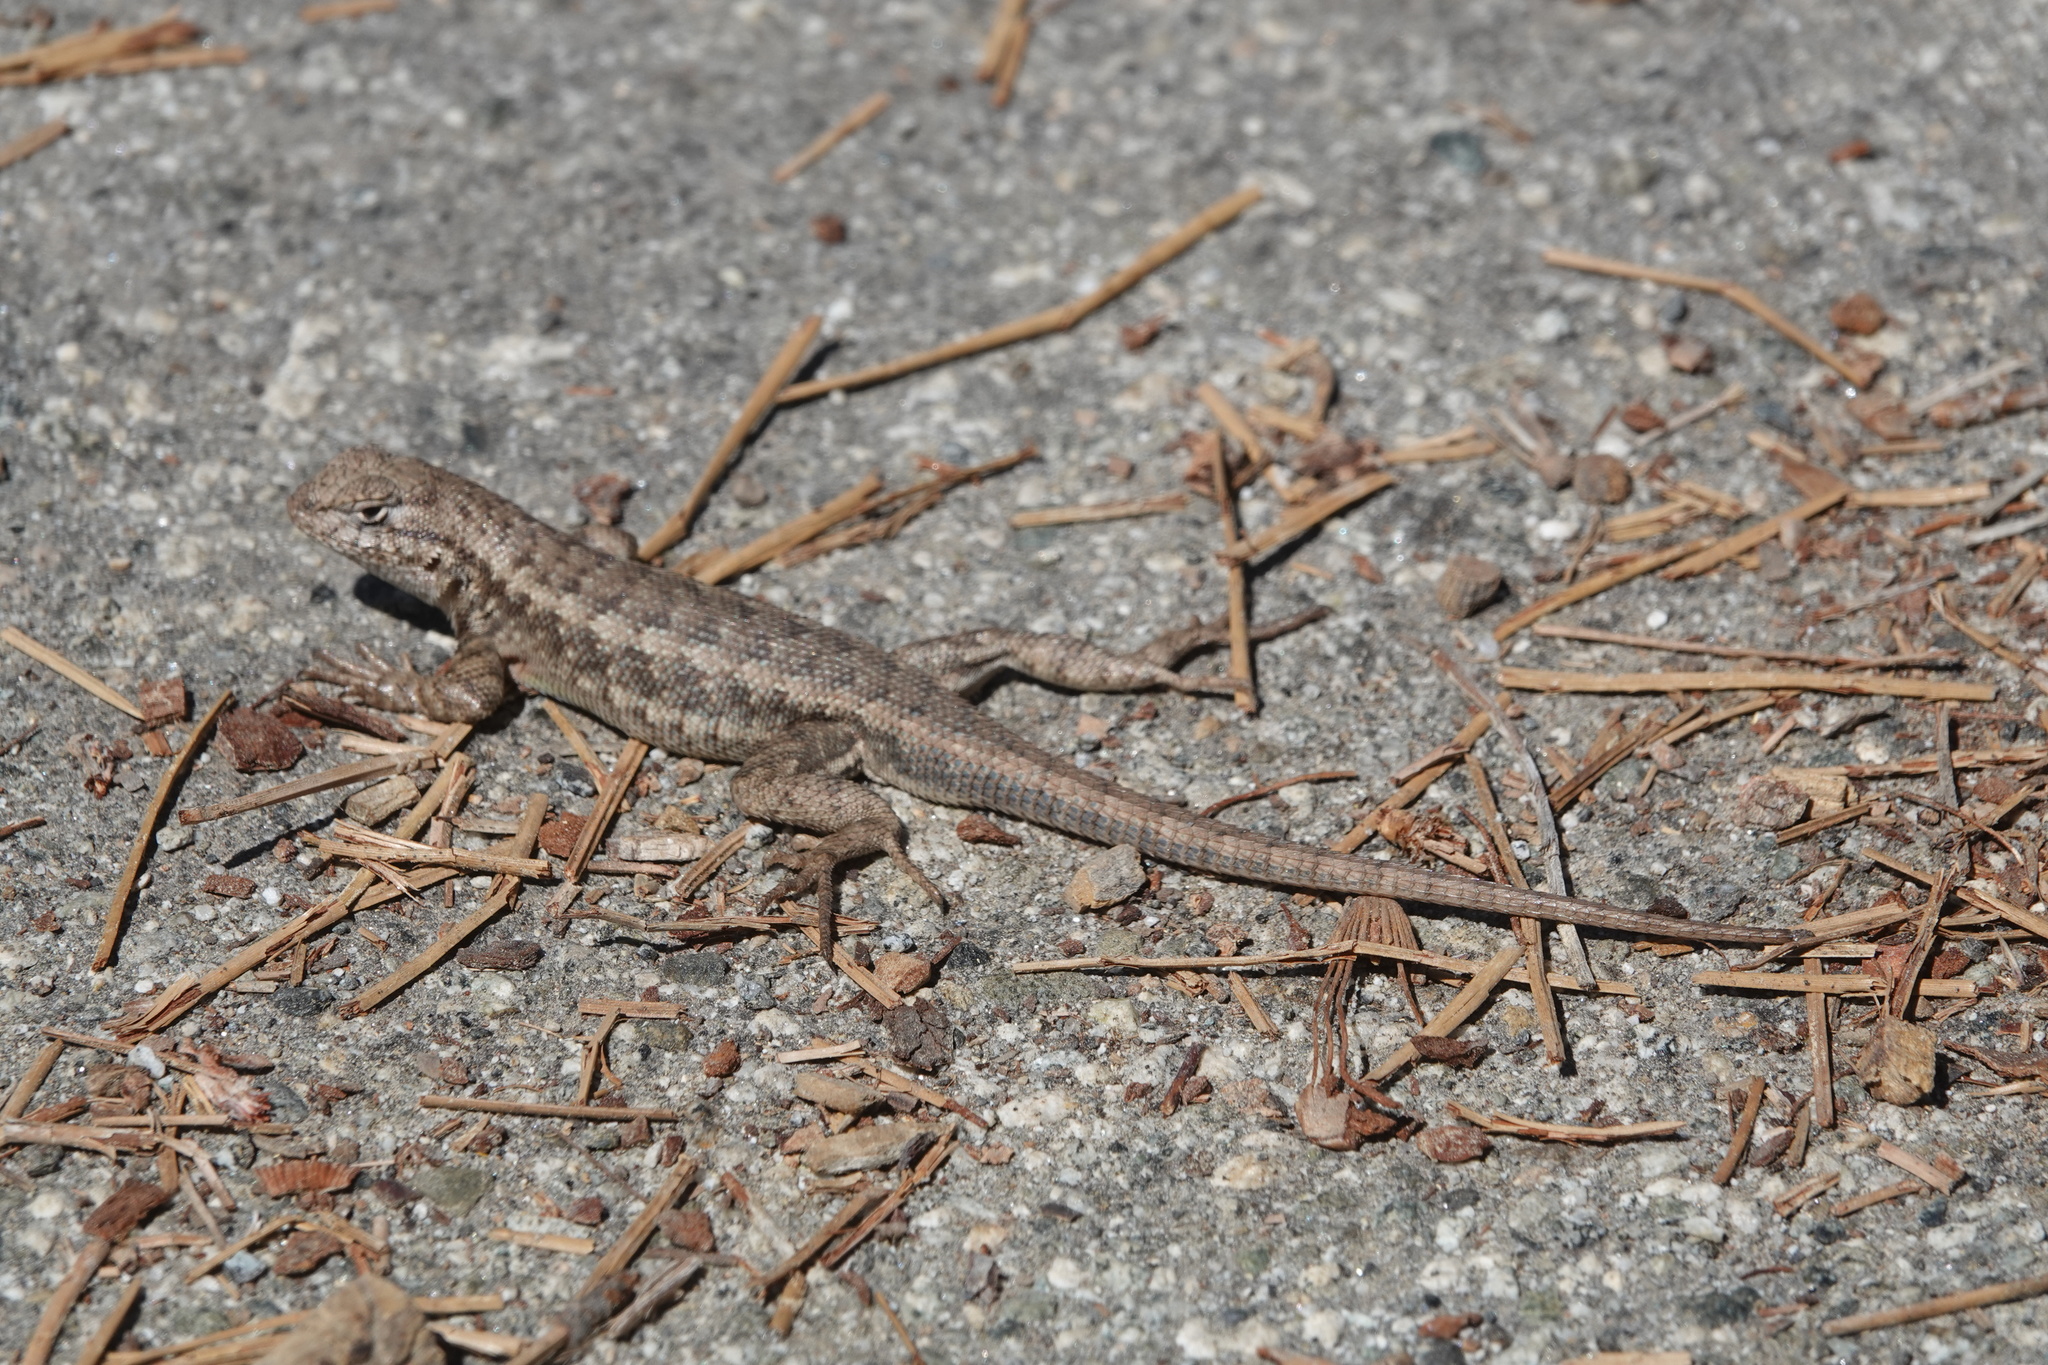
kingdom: Animalia
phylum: Chordata
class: Squamata
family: Phrynosomatidae
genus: Sceloporus
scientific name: Sceloporus graciosus
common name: Sagebrush lizard
